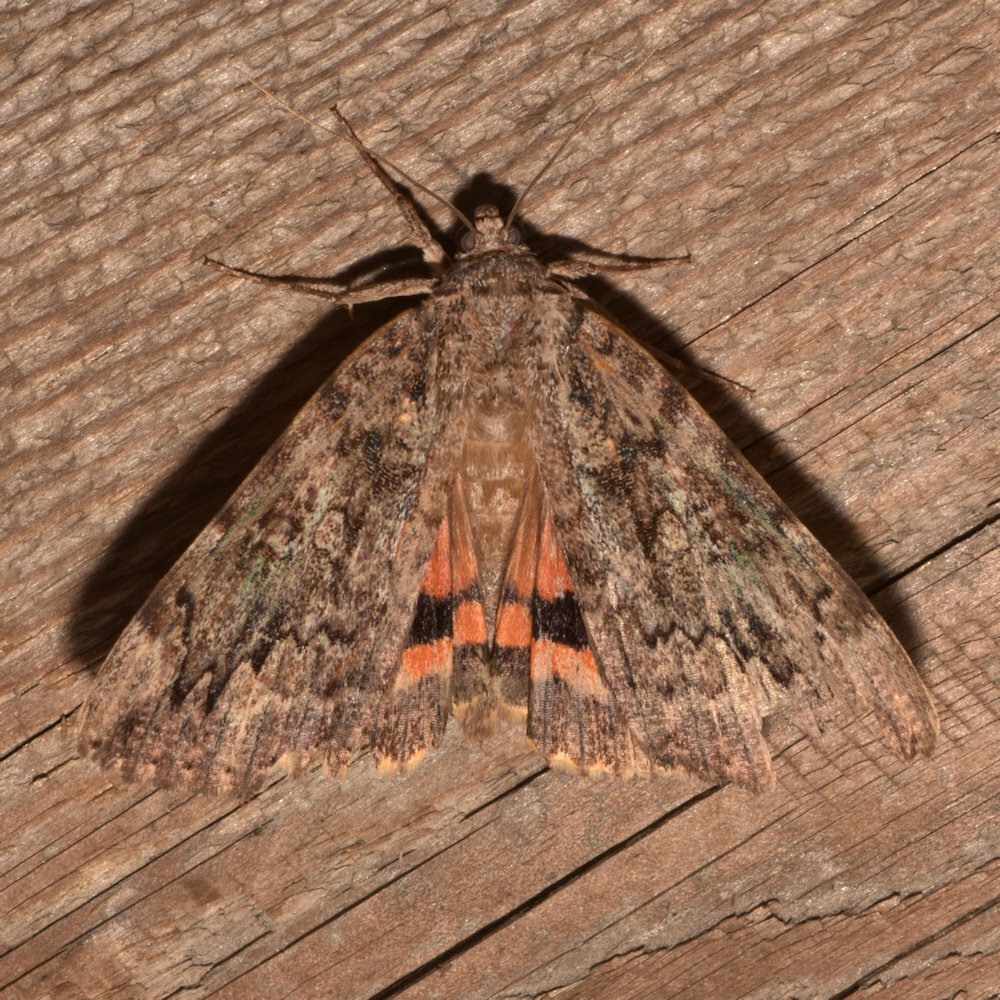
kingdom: Animalia
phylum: Arthropoda
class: Insecta
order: Lepidoptera
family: Erebidae
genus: Catocala
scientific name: Catocala innubens
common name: Betrothed underwing
